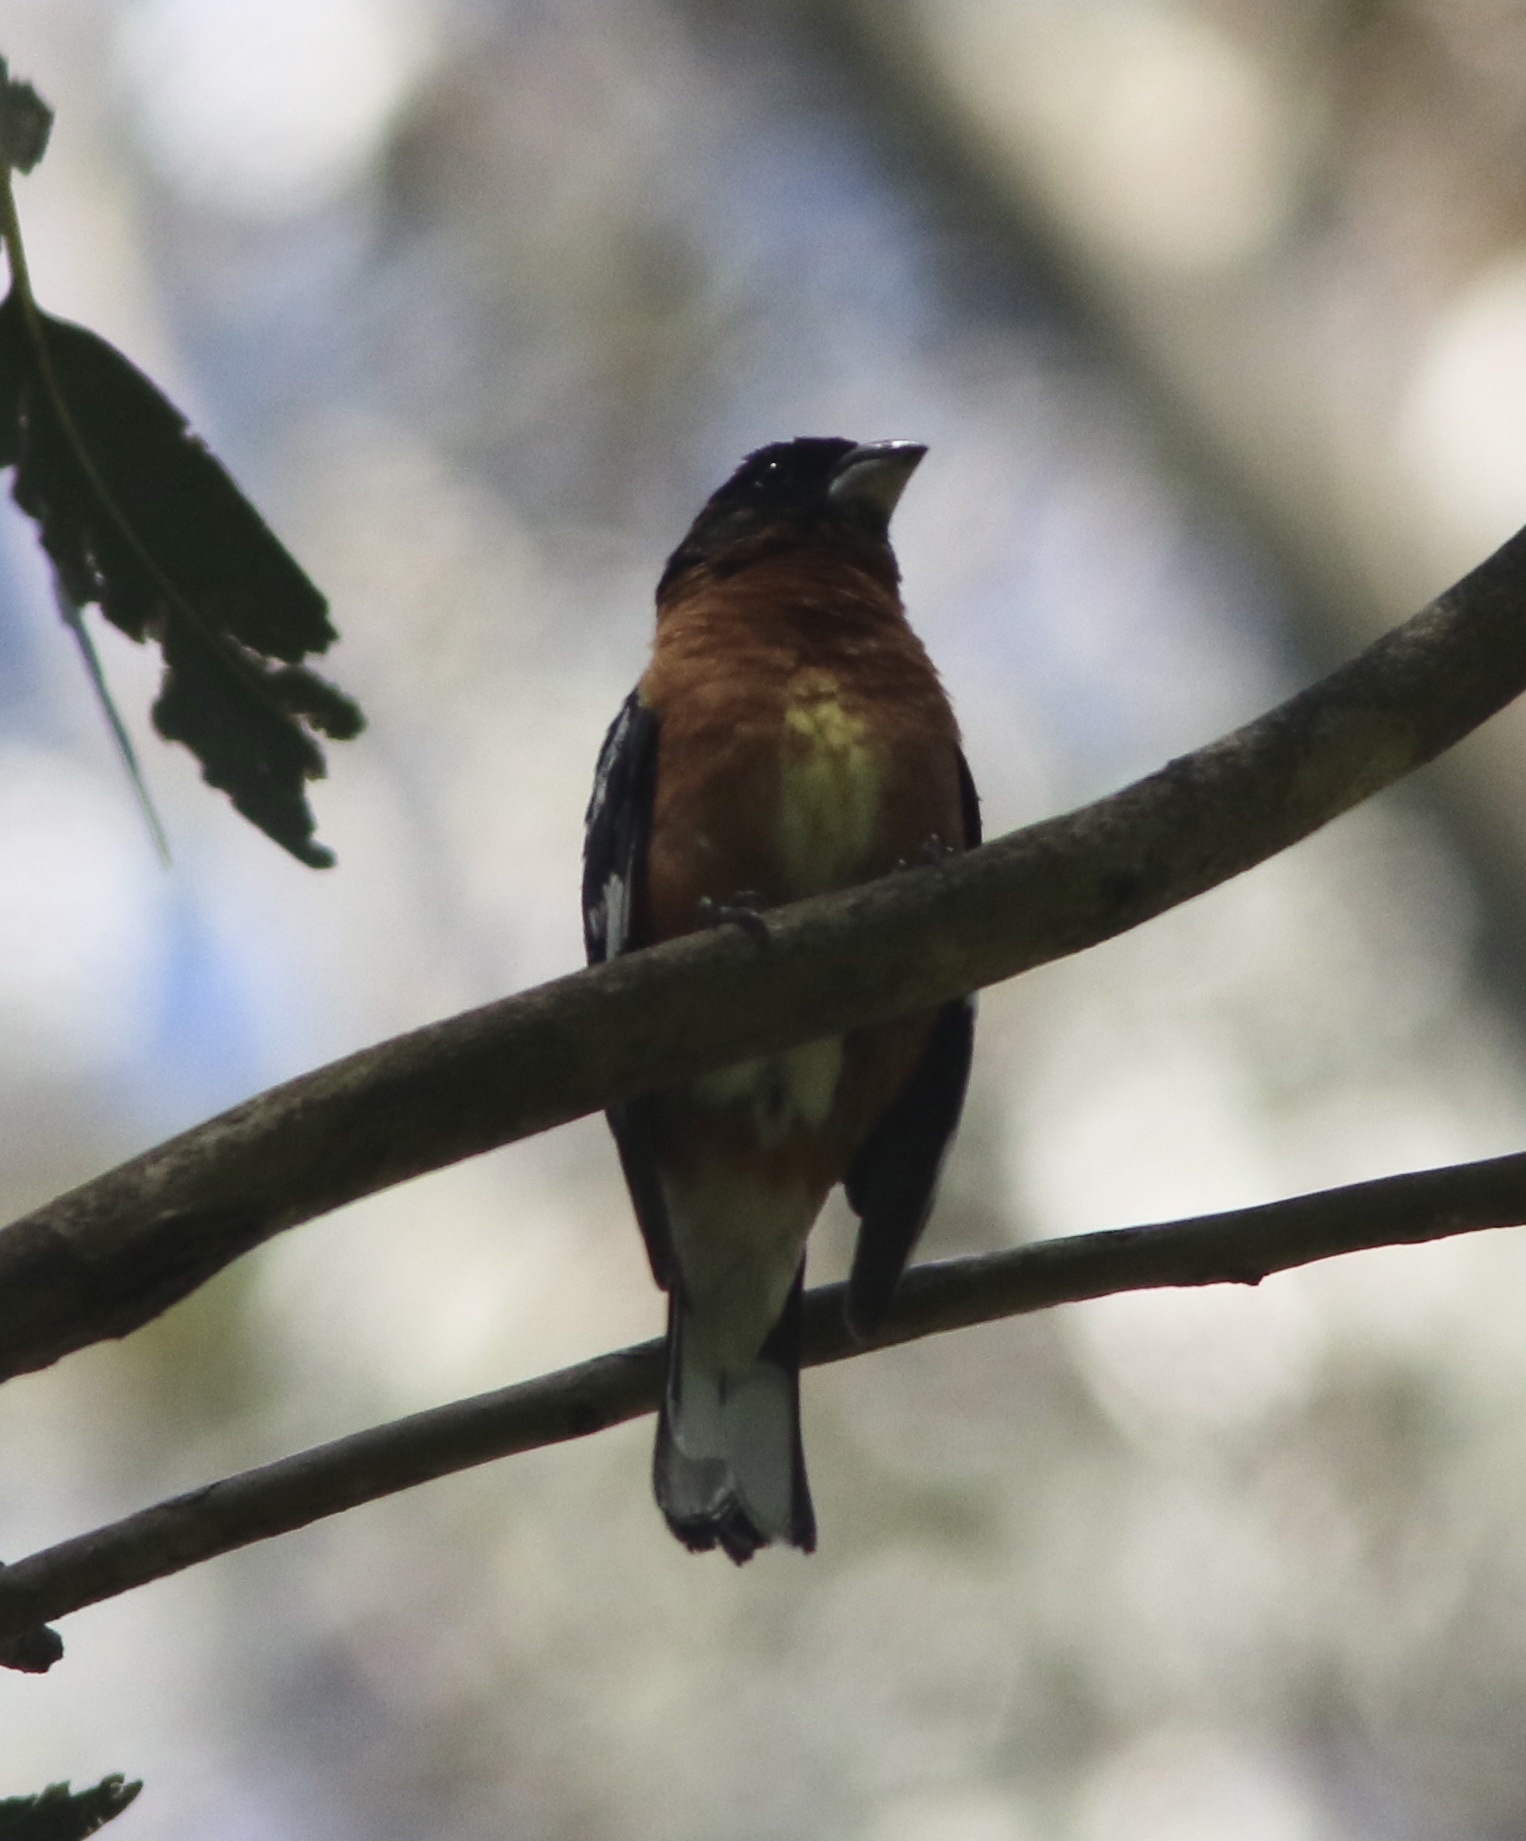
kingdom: Animalia
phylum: Chordata
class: Aves
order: Passeriformes
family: Cardinalidae
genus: Pheucticus
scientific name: Pheucticus melanocephalus
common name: Black-headed grosbeak
